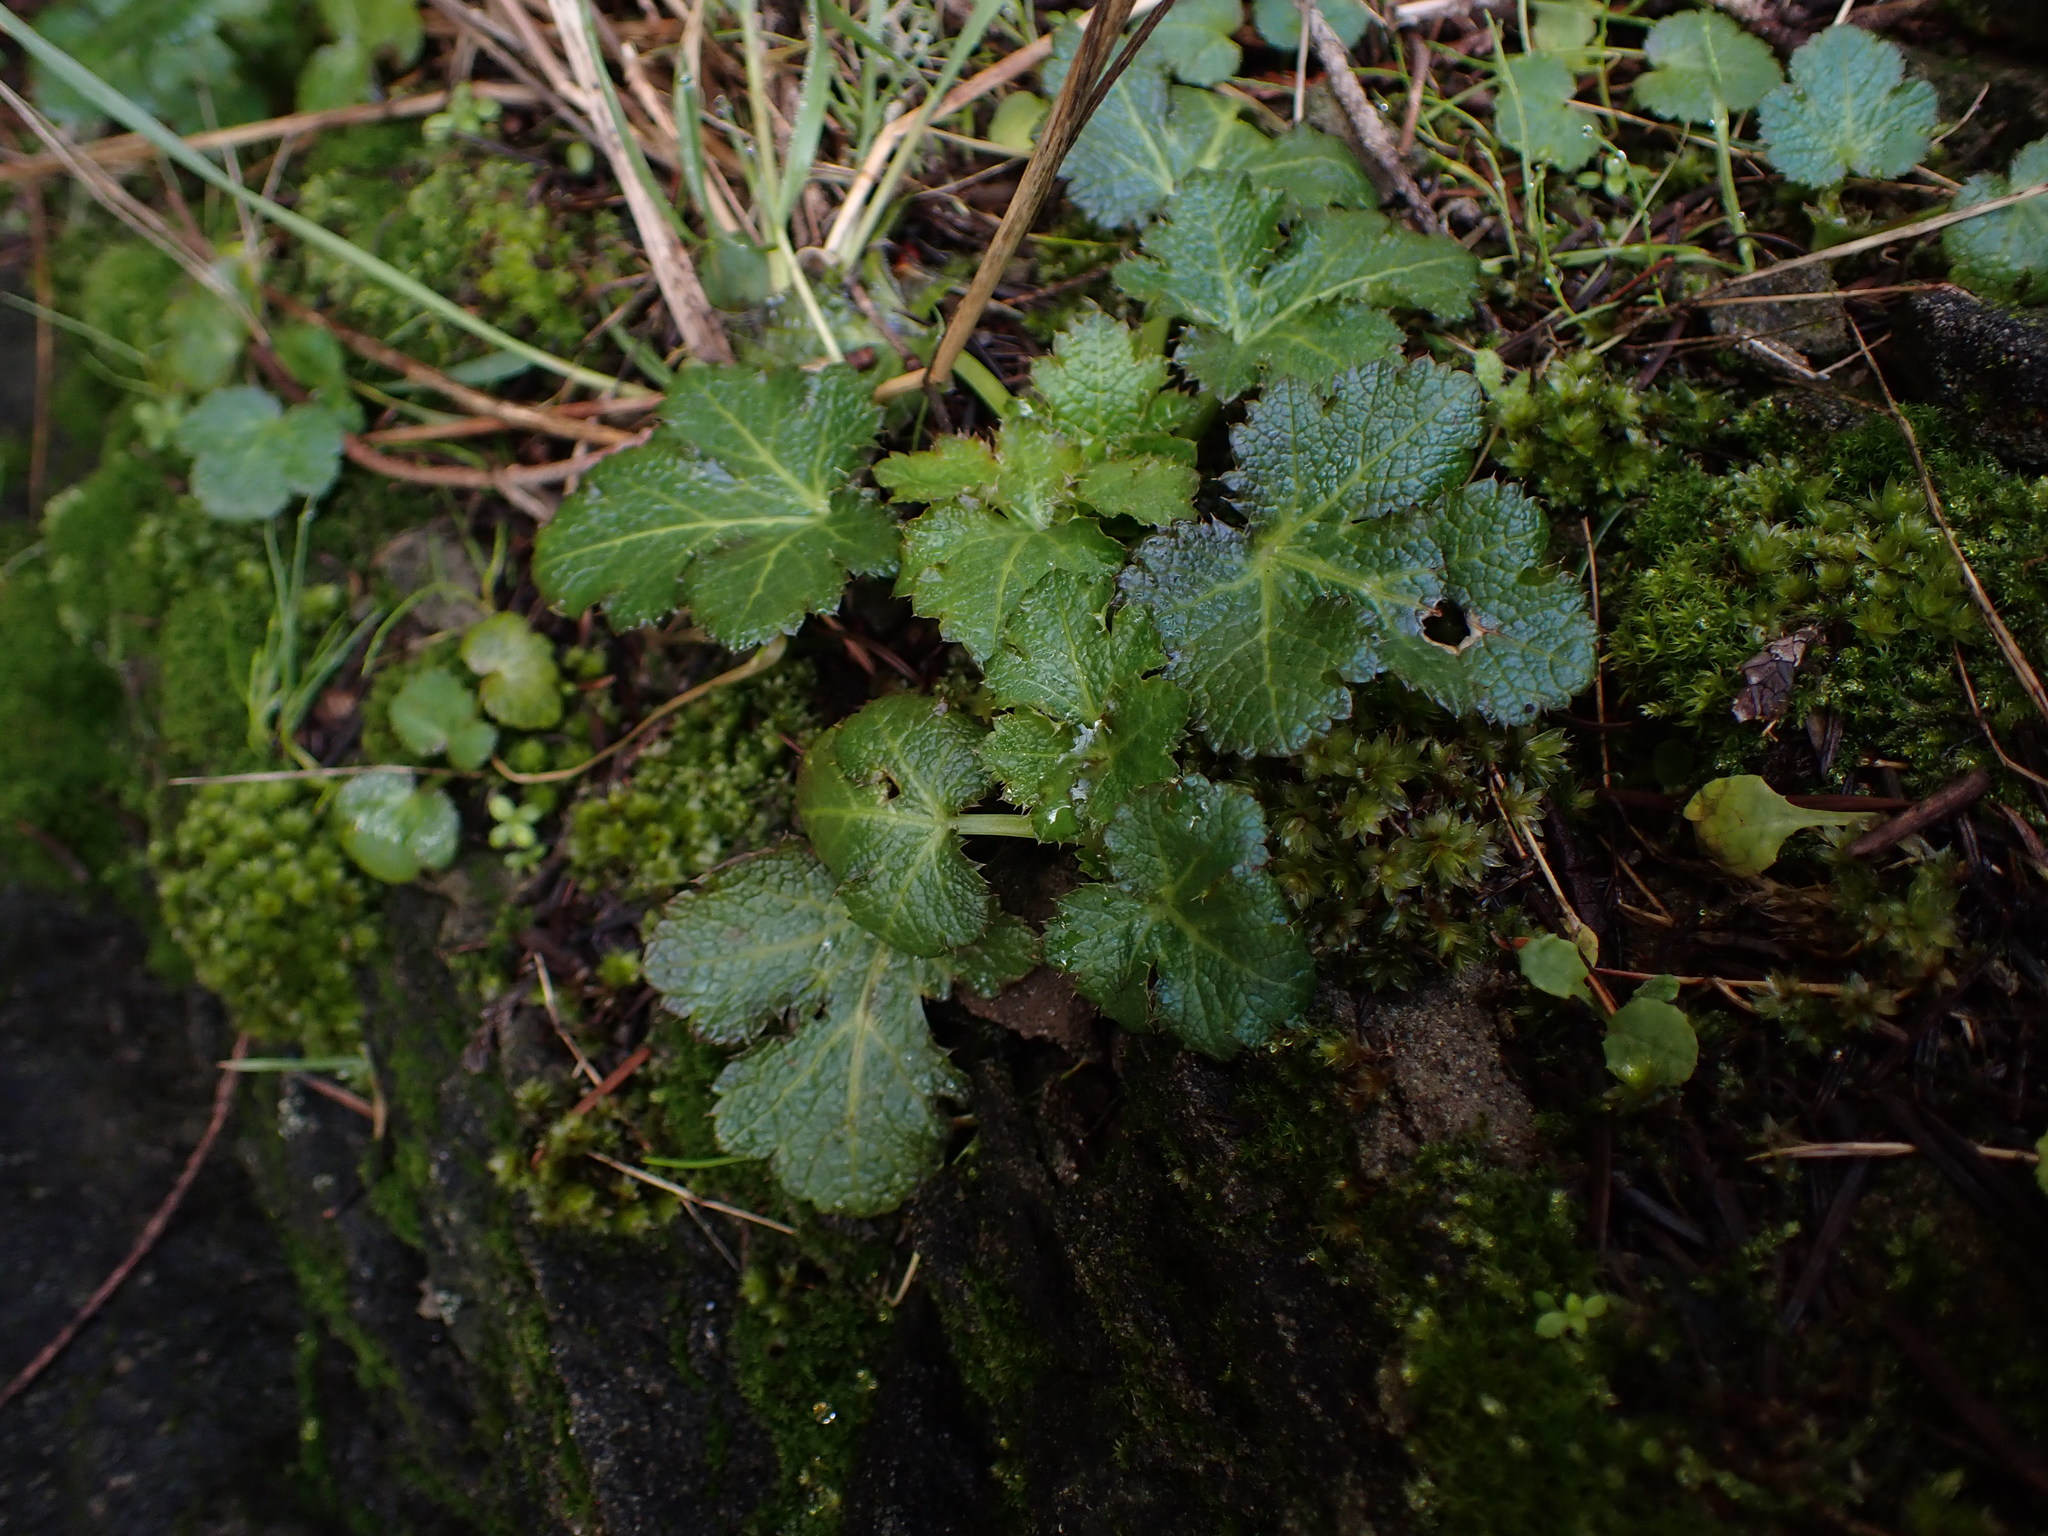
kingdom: Plantae
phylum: Tracheophyta
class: Magnoliopsida
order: Apiales
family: Apiaceae
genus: Sanicula
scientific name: Sanicula crassicaulis
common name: Western snakeroot
